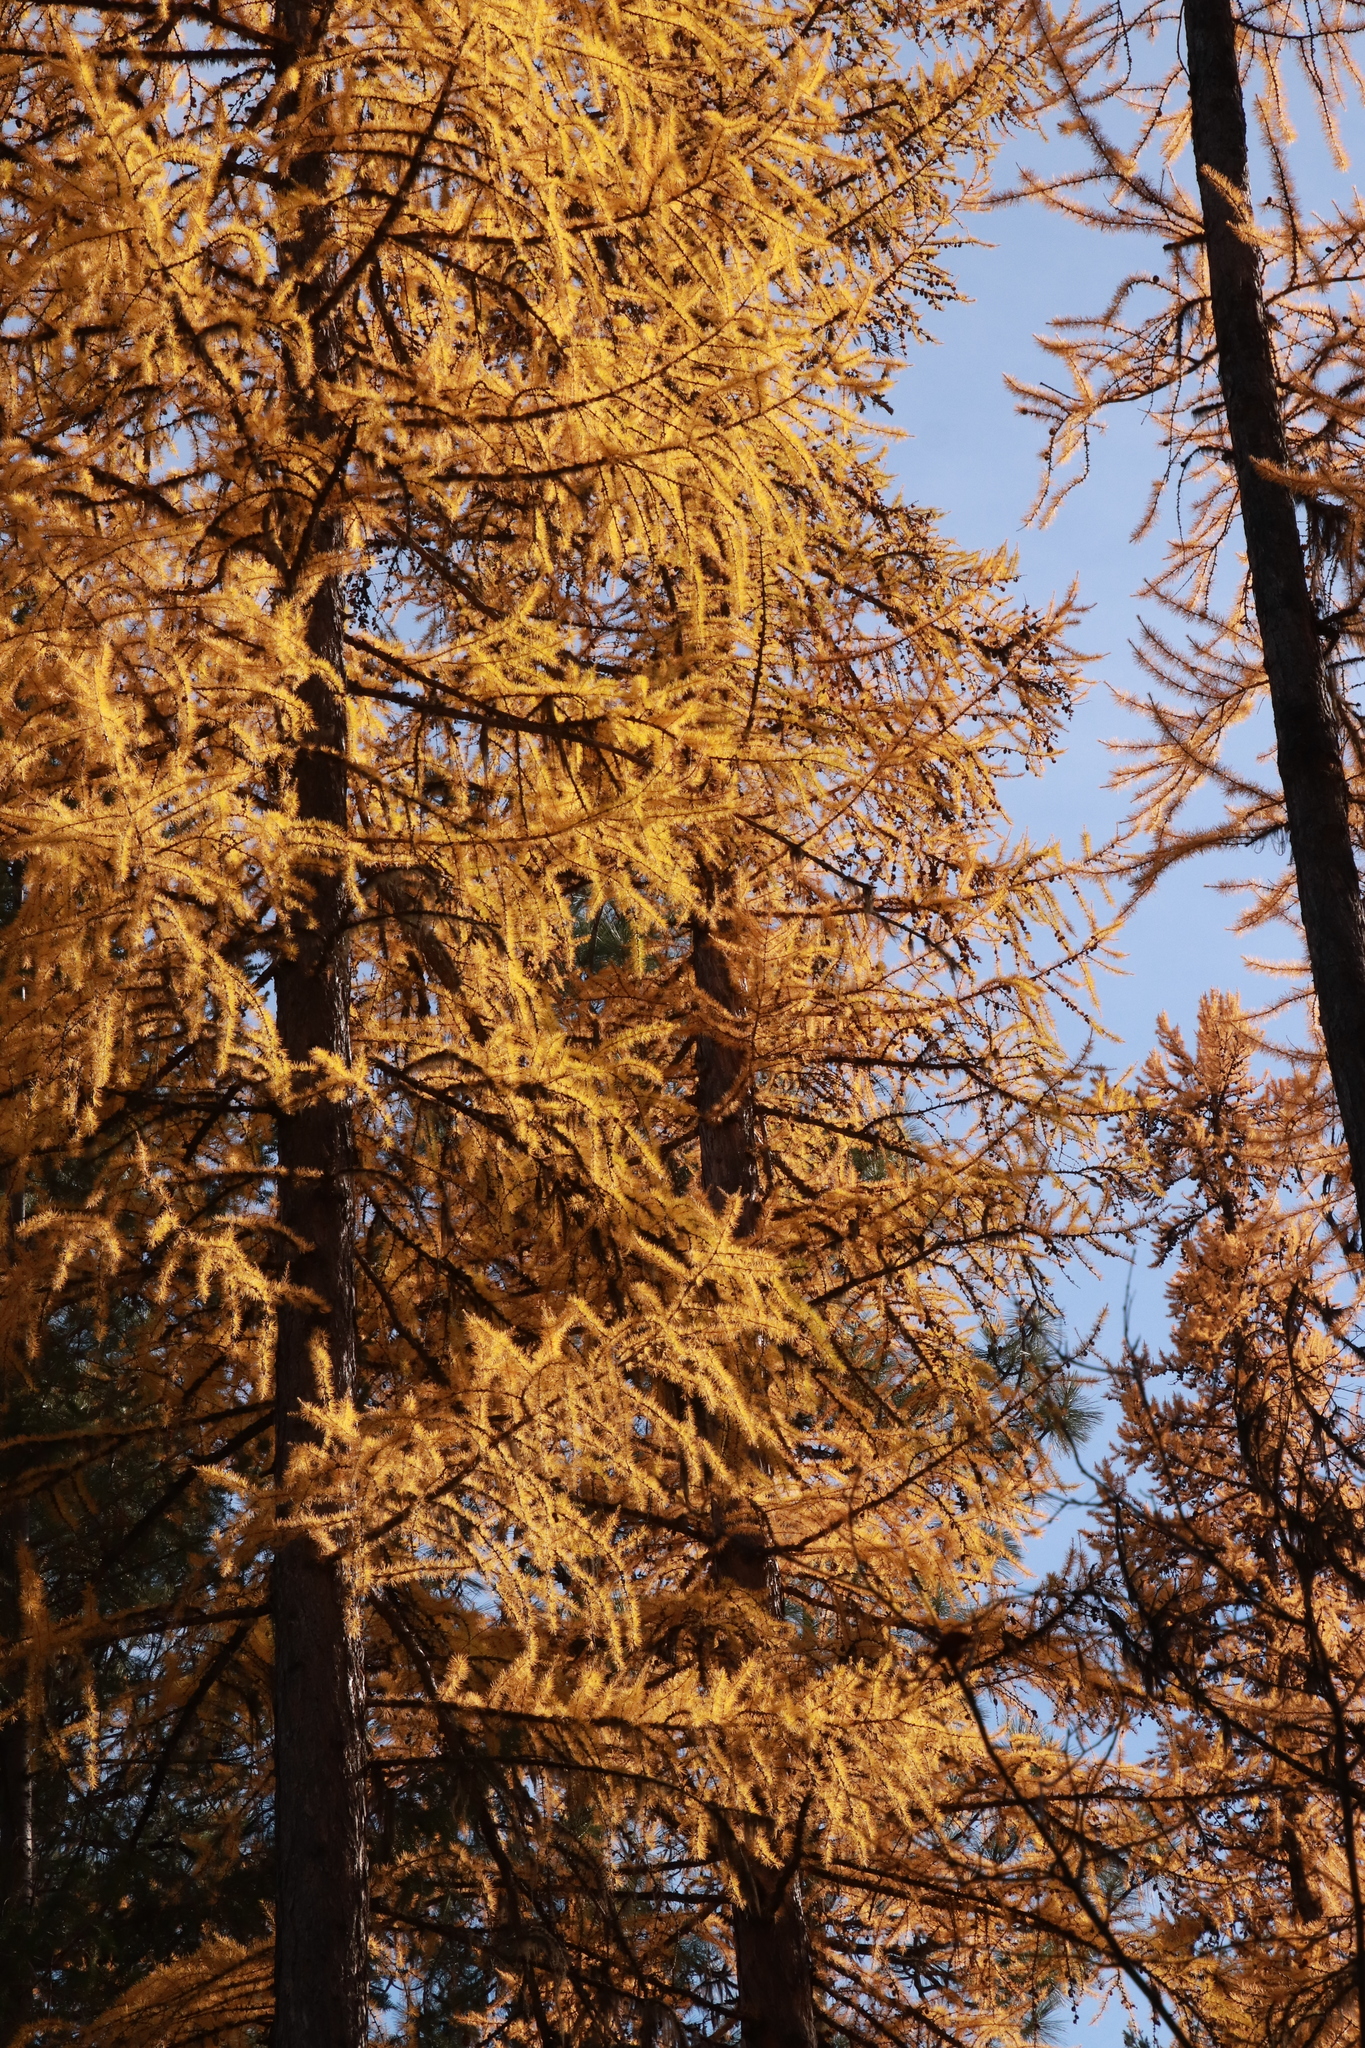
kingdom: Plantae
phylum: Tracheophyta
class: Pinopsida
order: Pinales
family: Pinaceae
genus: Larix
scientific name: Larix occidentalis
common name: Western larch
